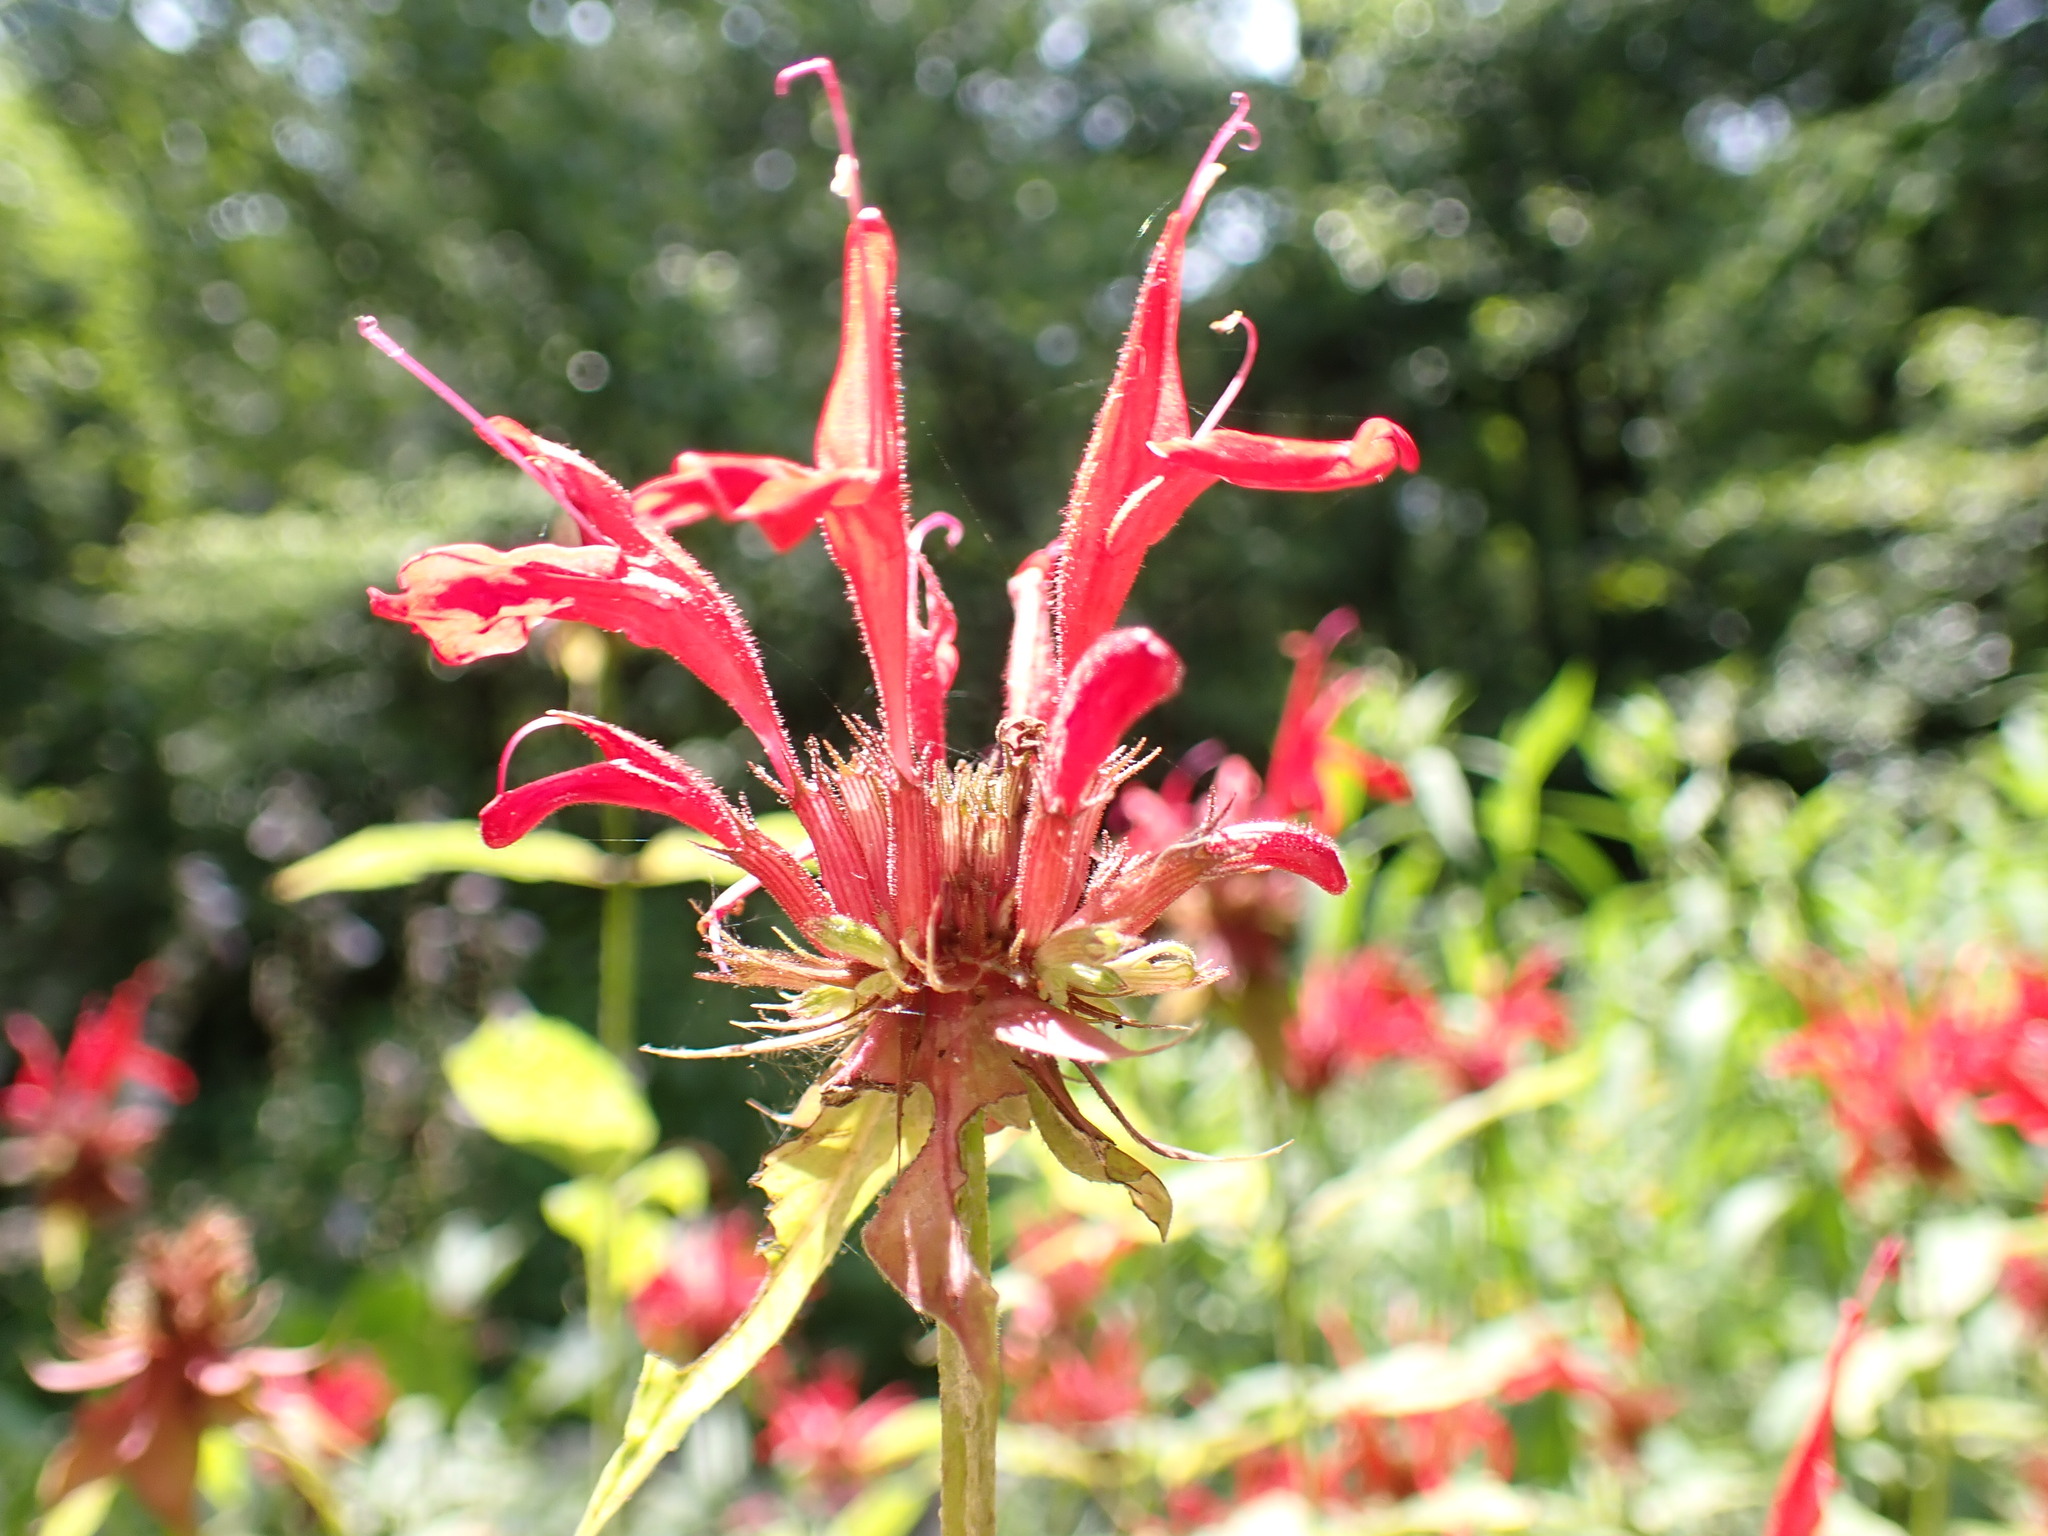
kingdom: Plantae
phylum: Tracheophyta
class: Magnoliopsida
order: Lamiales
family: Lamiaceae
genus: Monarda
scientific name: Monarda didyma
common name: Beebalm
